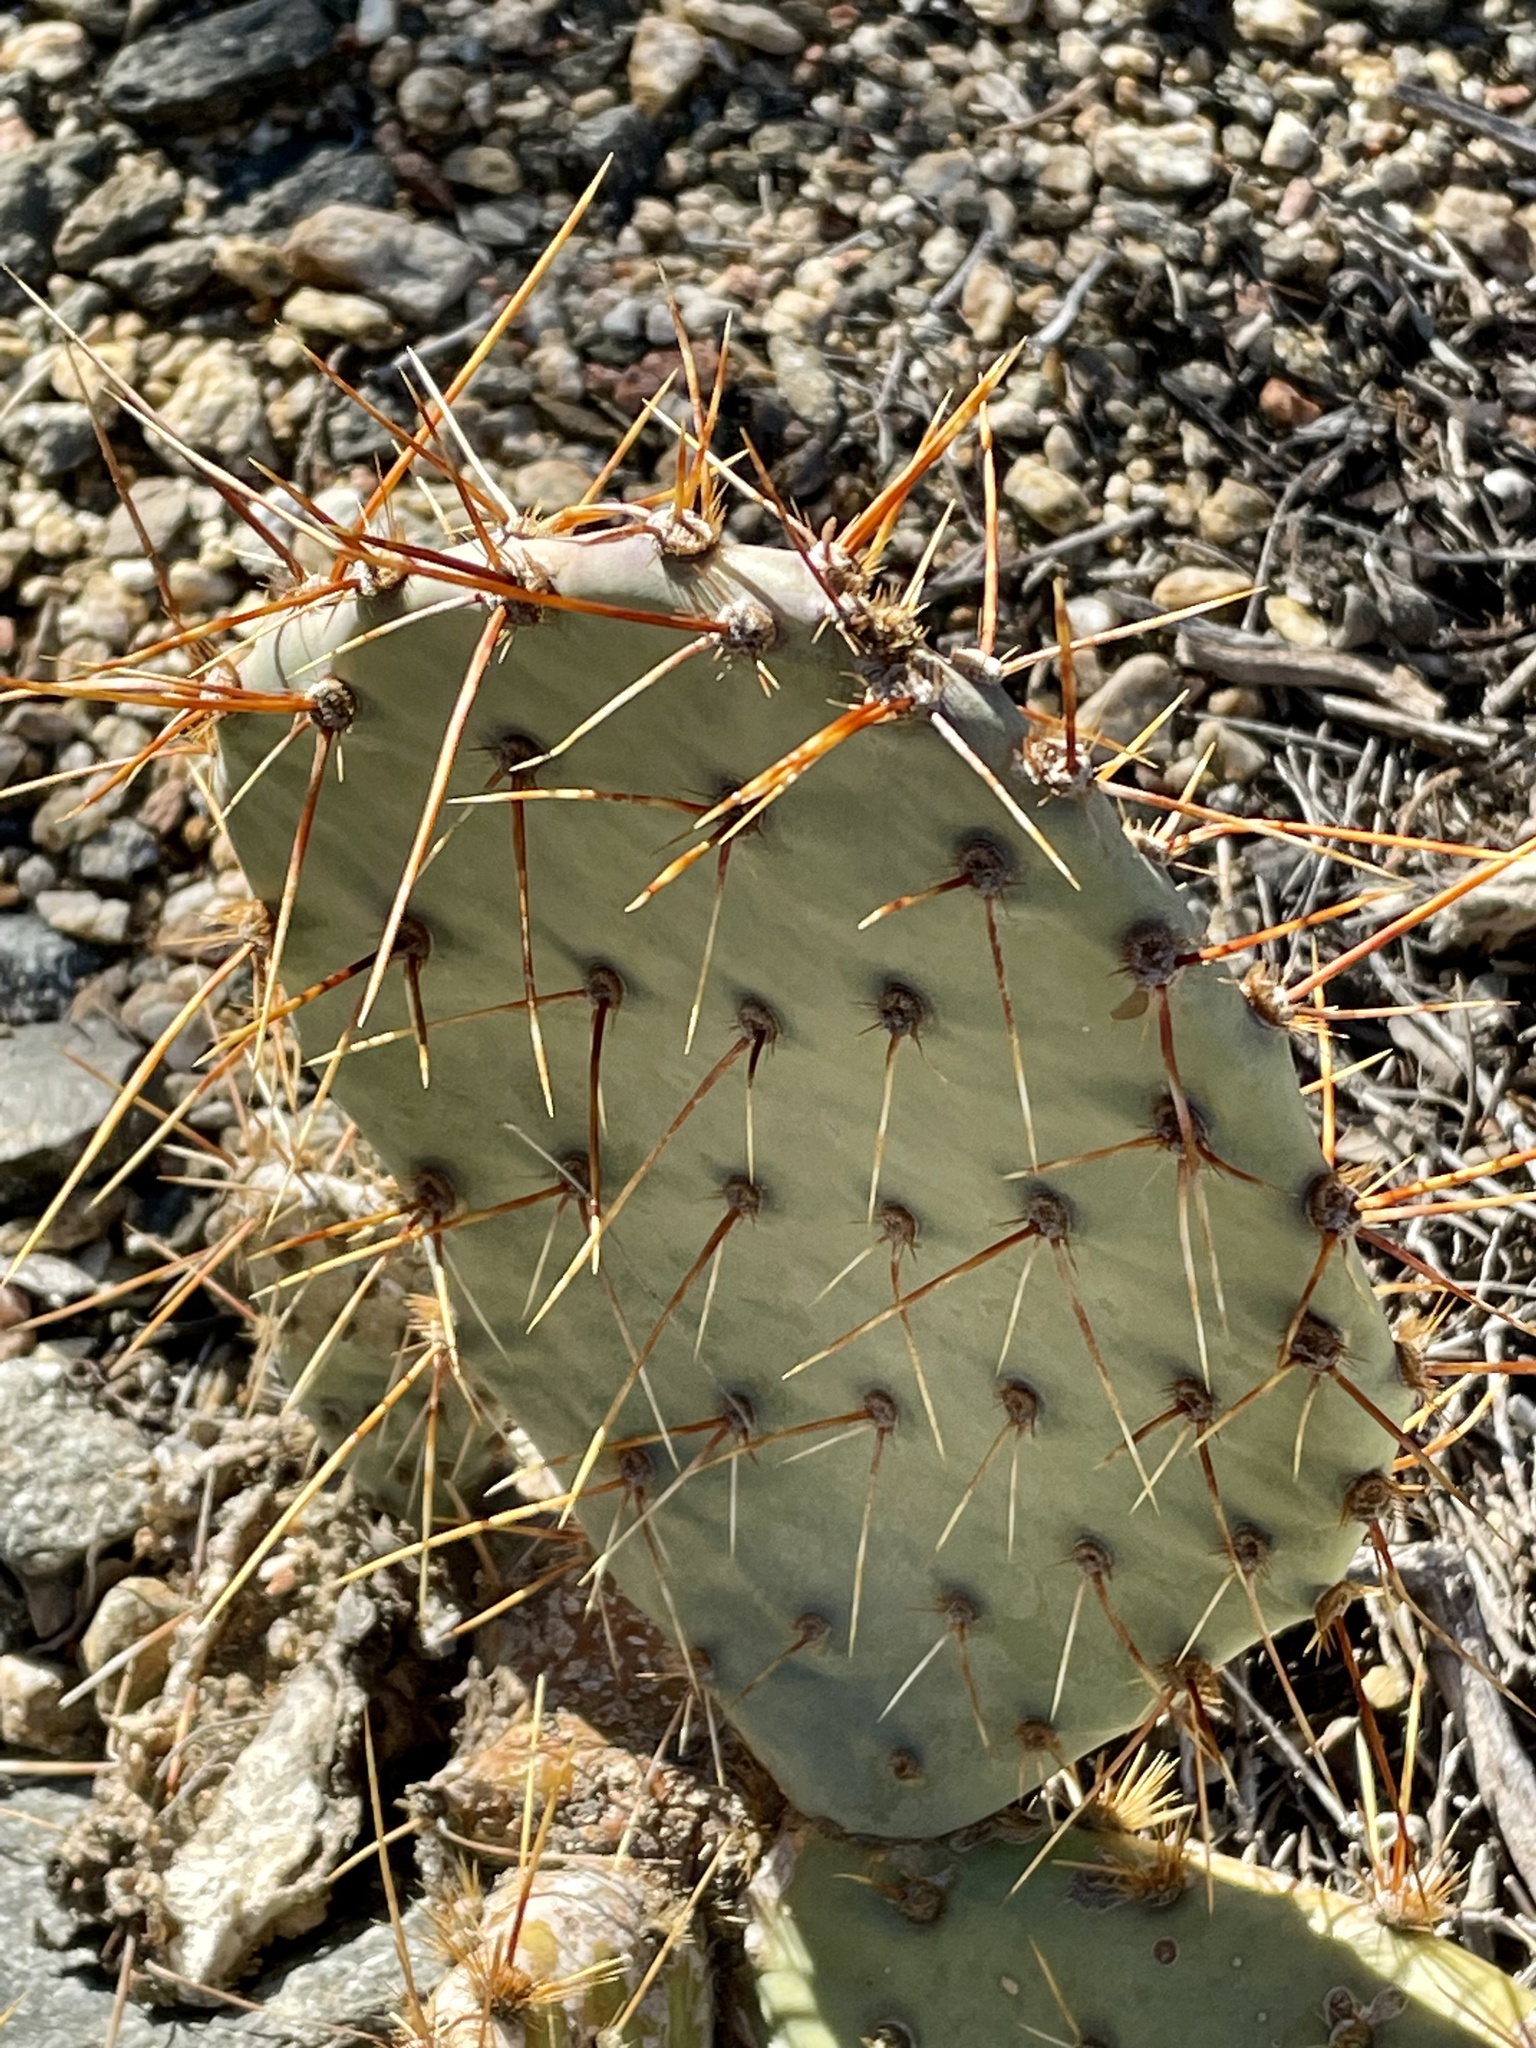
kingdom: Plantae
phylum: Tracheophyta
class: Magnoliopsida
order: Caryophyllales
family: Cactaceae
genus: Opuntia
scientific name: Opuntia phaeacantha
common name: New mexico prickly-pear
